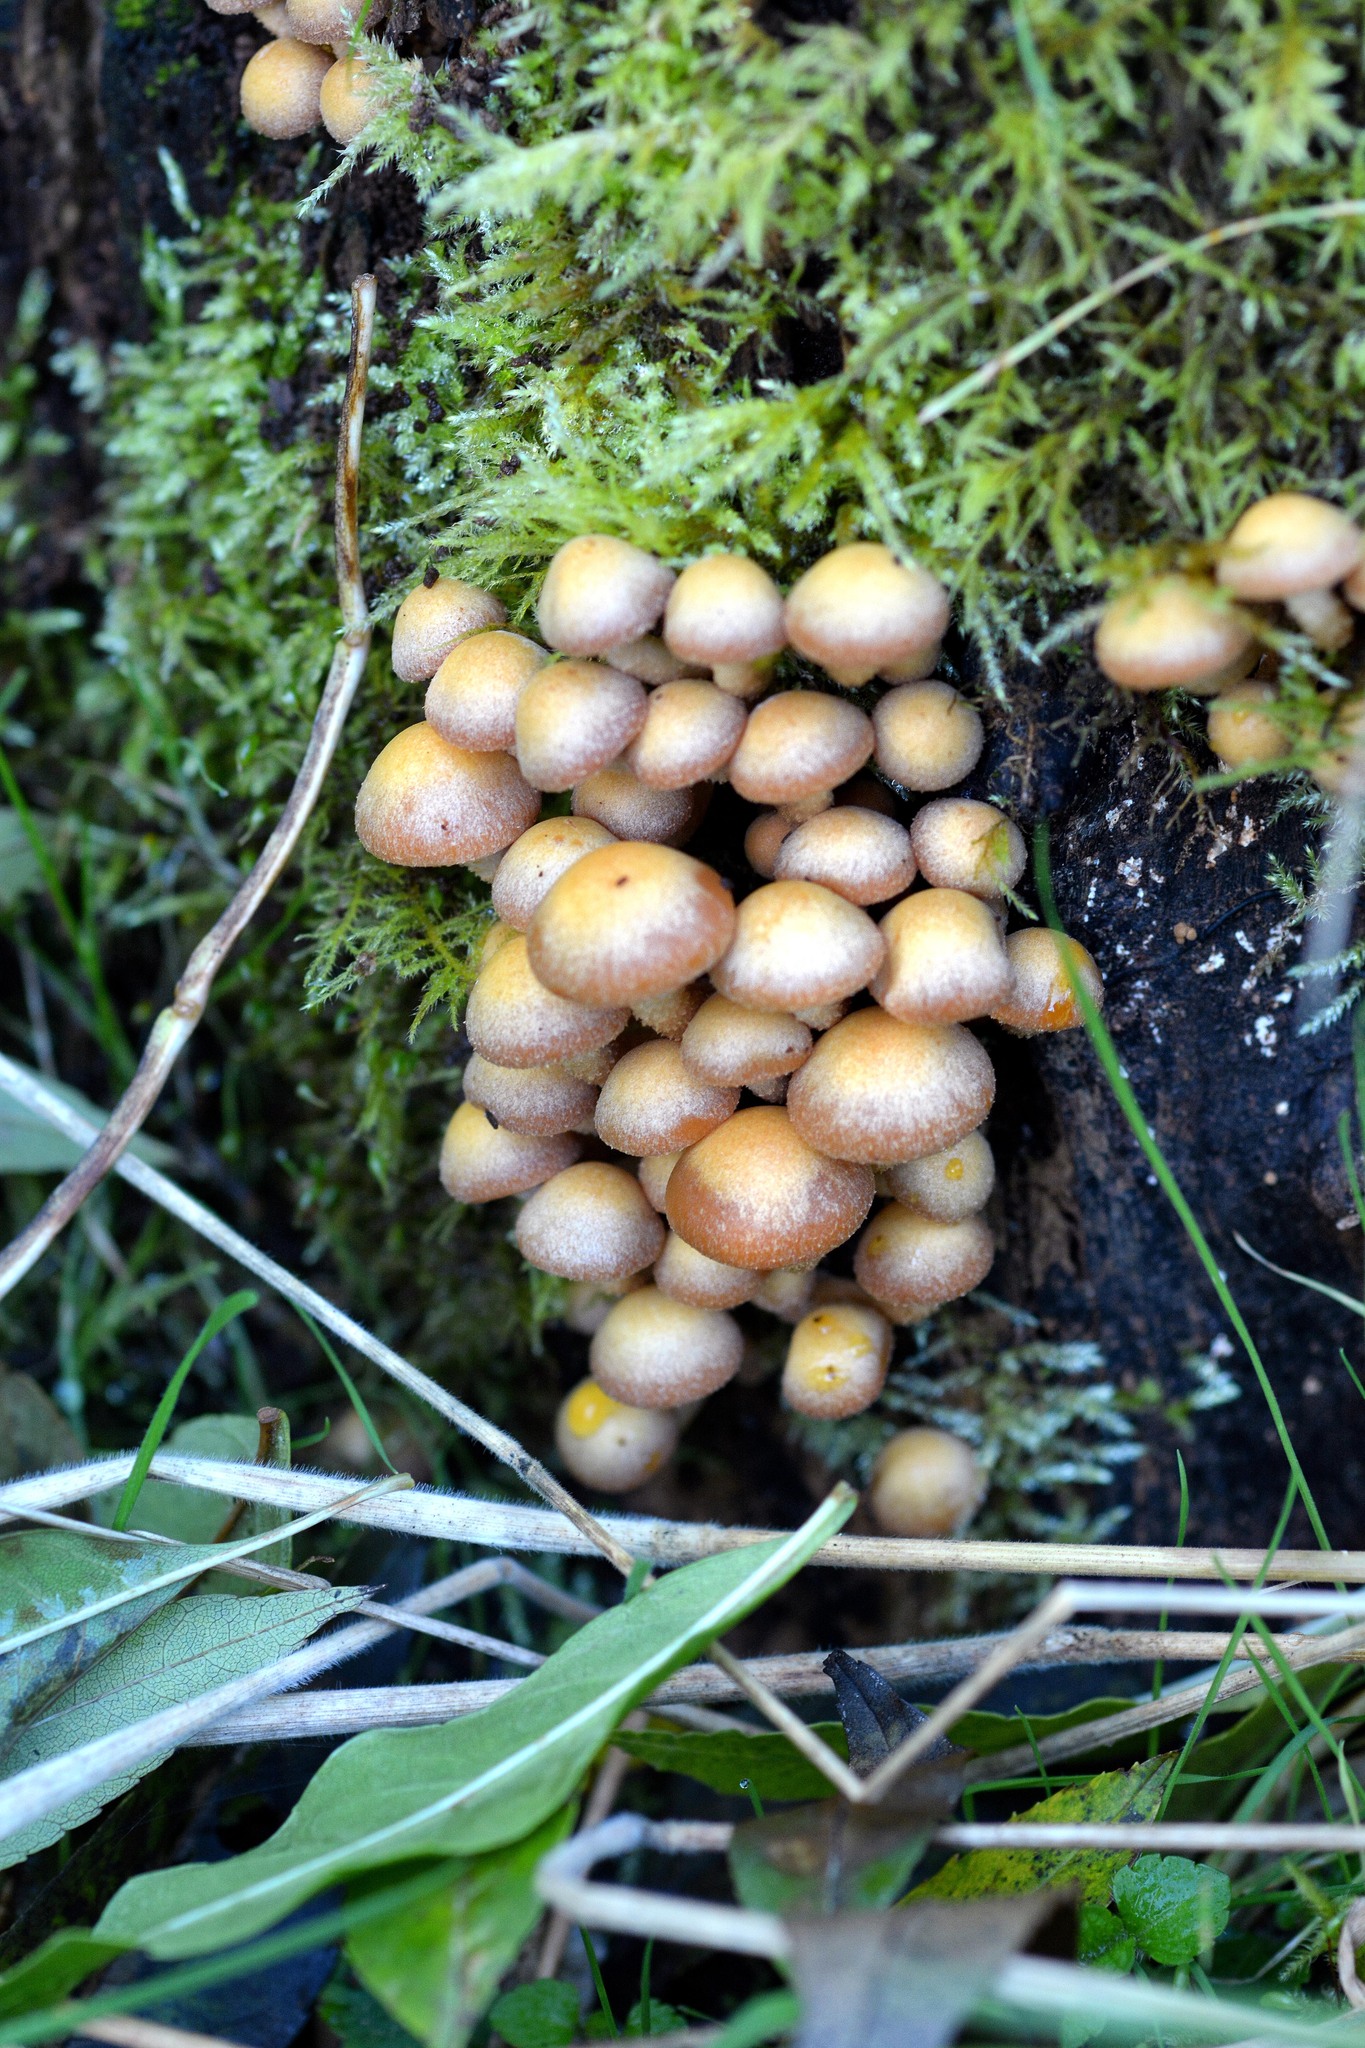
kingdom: Fungi
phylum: Basidiomycota
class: Agaricomycetes
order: Agaricales
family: Strophariaceae
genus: Kuehneromyces
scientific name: Kuehneromyces mutabilis
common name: Sheathed woodtuft
